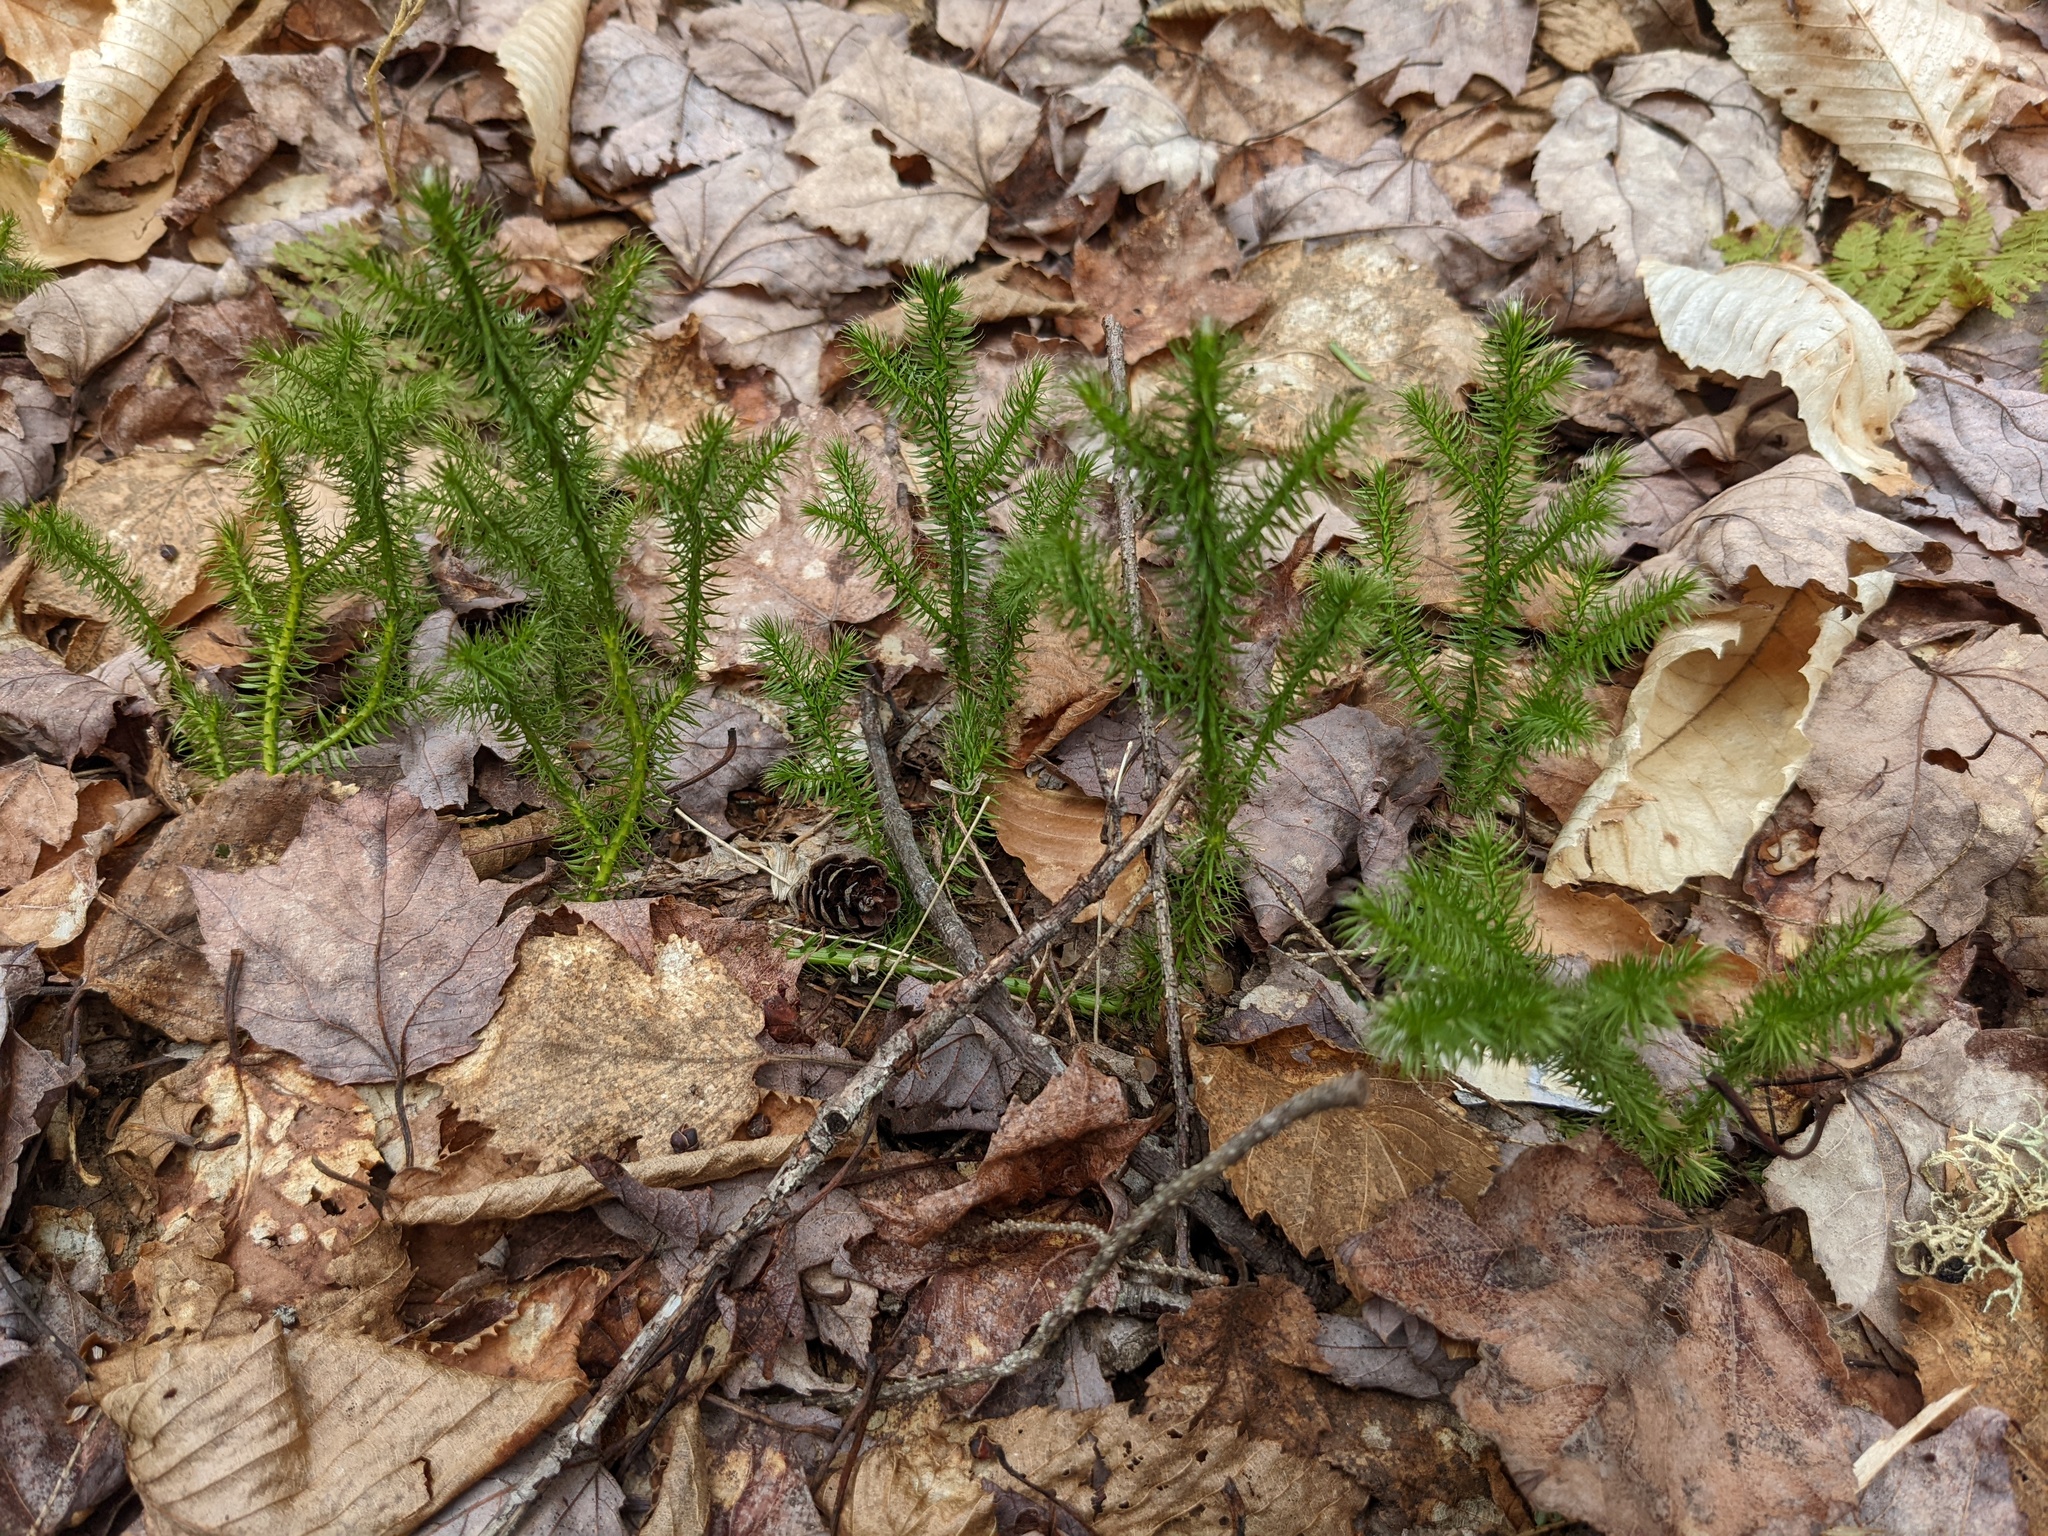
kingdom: Plantae
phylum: Tracheophyta
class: Lycopodiopsida
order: Lycopodiales
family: Lycopodiaceae
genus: Lycopodium
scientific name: Lycopodium clavatum
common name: Stag's-horn clubmoss
